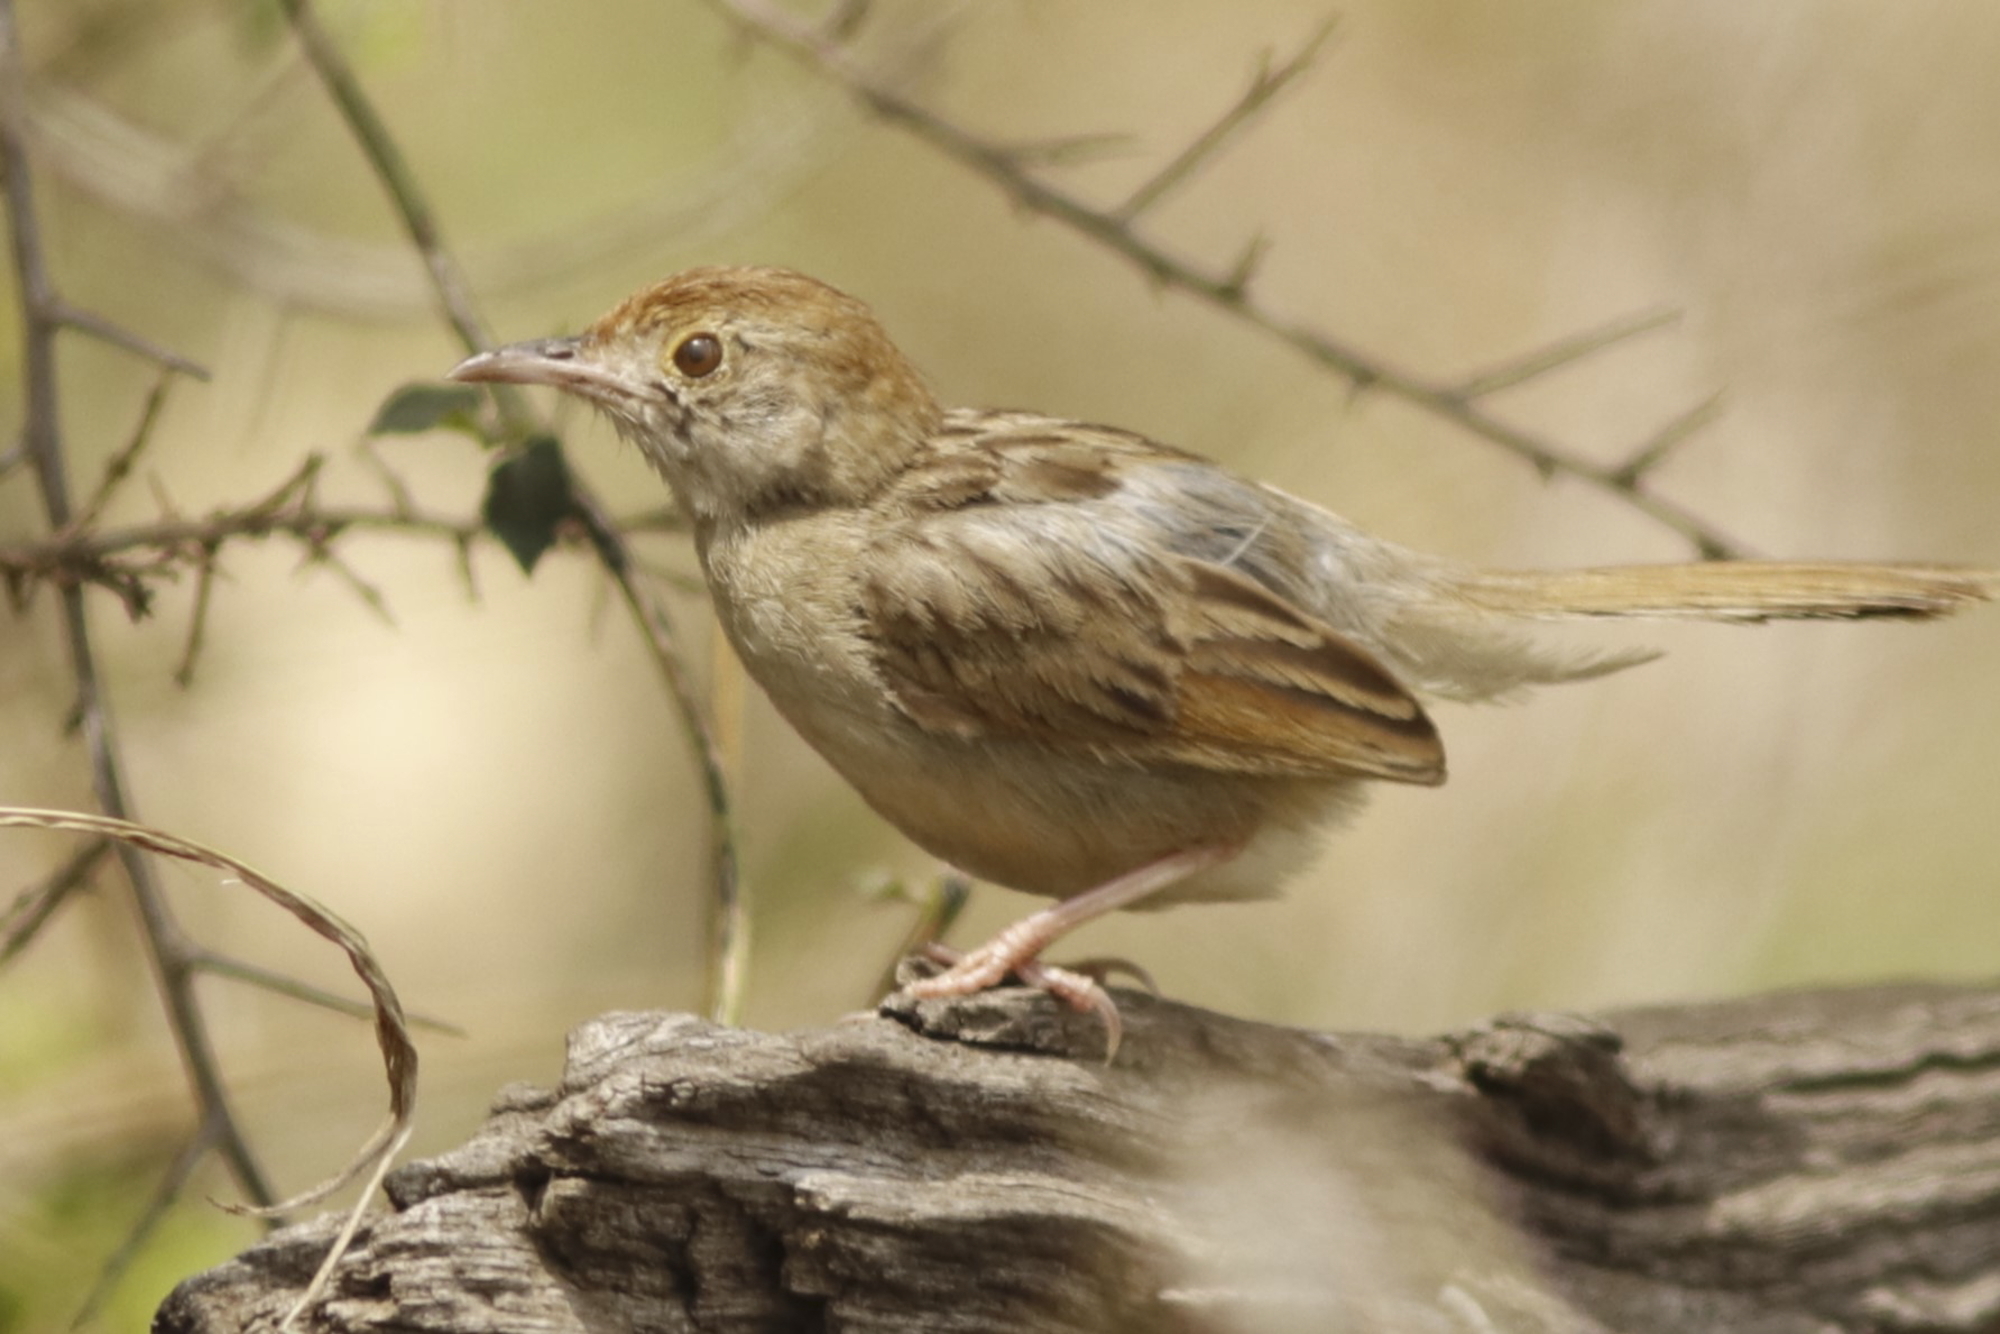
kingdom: Animalia
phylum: Chordata
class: Aves
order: Passeriformes
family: Cisticolidae
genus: Cisticola
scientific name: Cisticola chiniana
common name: Rattling cisticola
